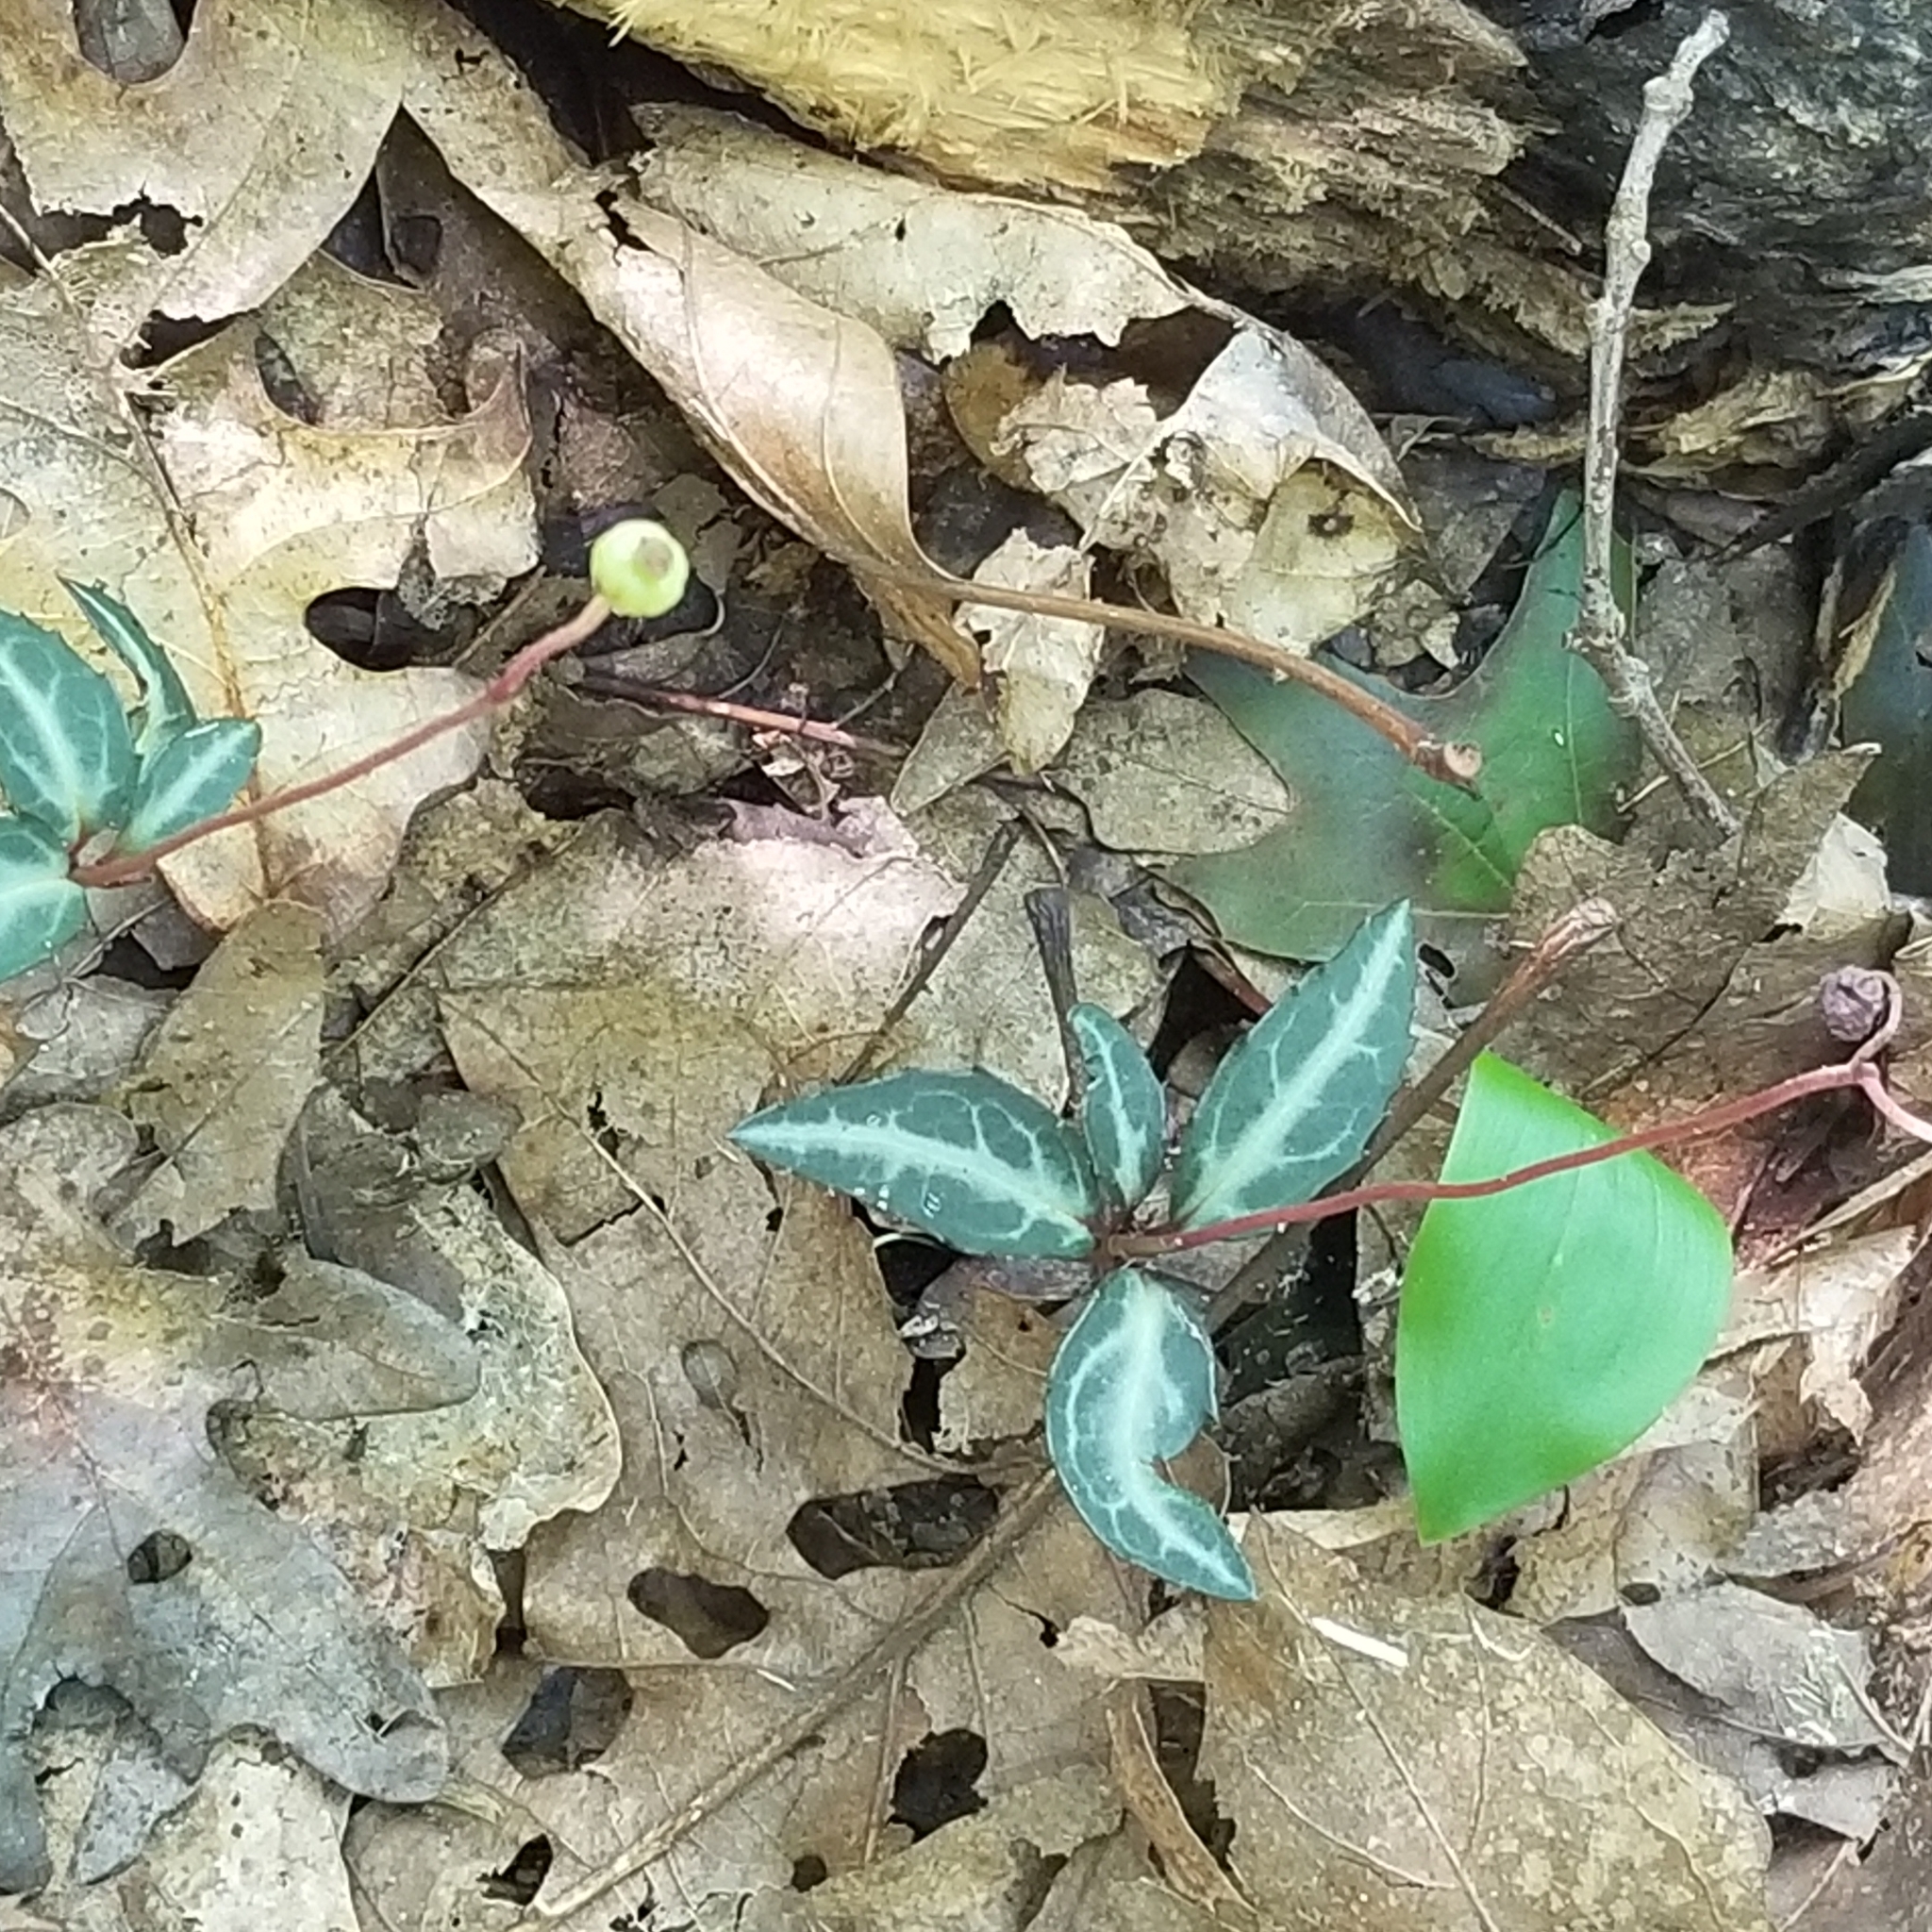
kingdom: Plantae
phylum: Tracheophyta
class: Magnoliopsida
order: Ericales
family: Ericaceae
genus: Chimaphila
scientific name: Chimaphila maculata
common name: Spotted pipsissewa
